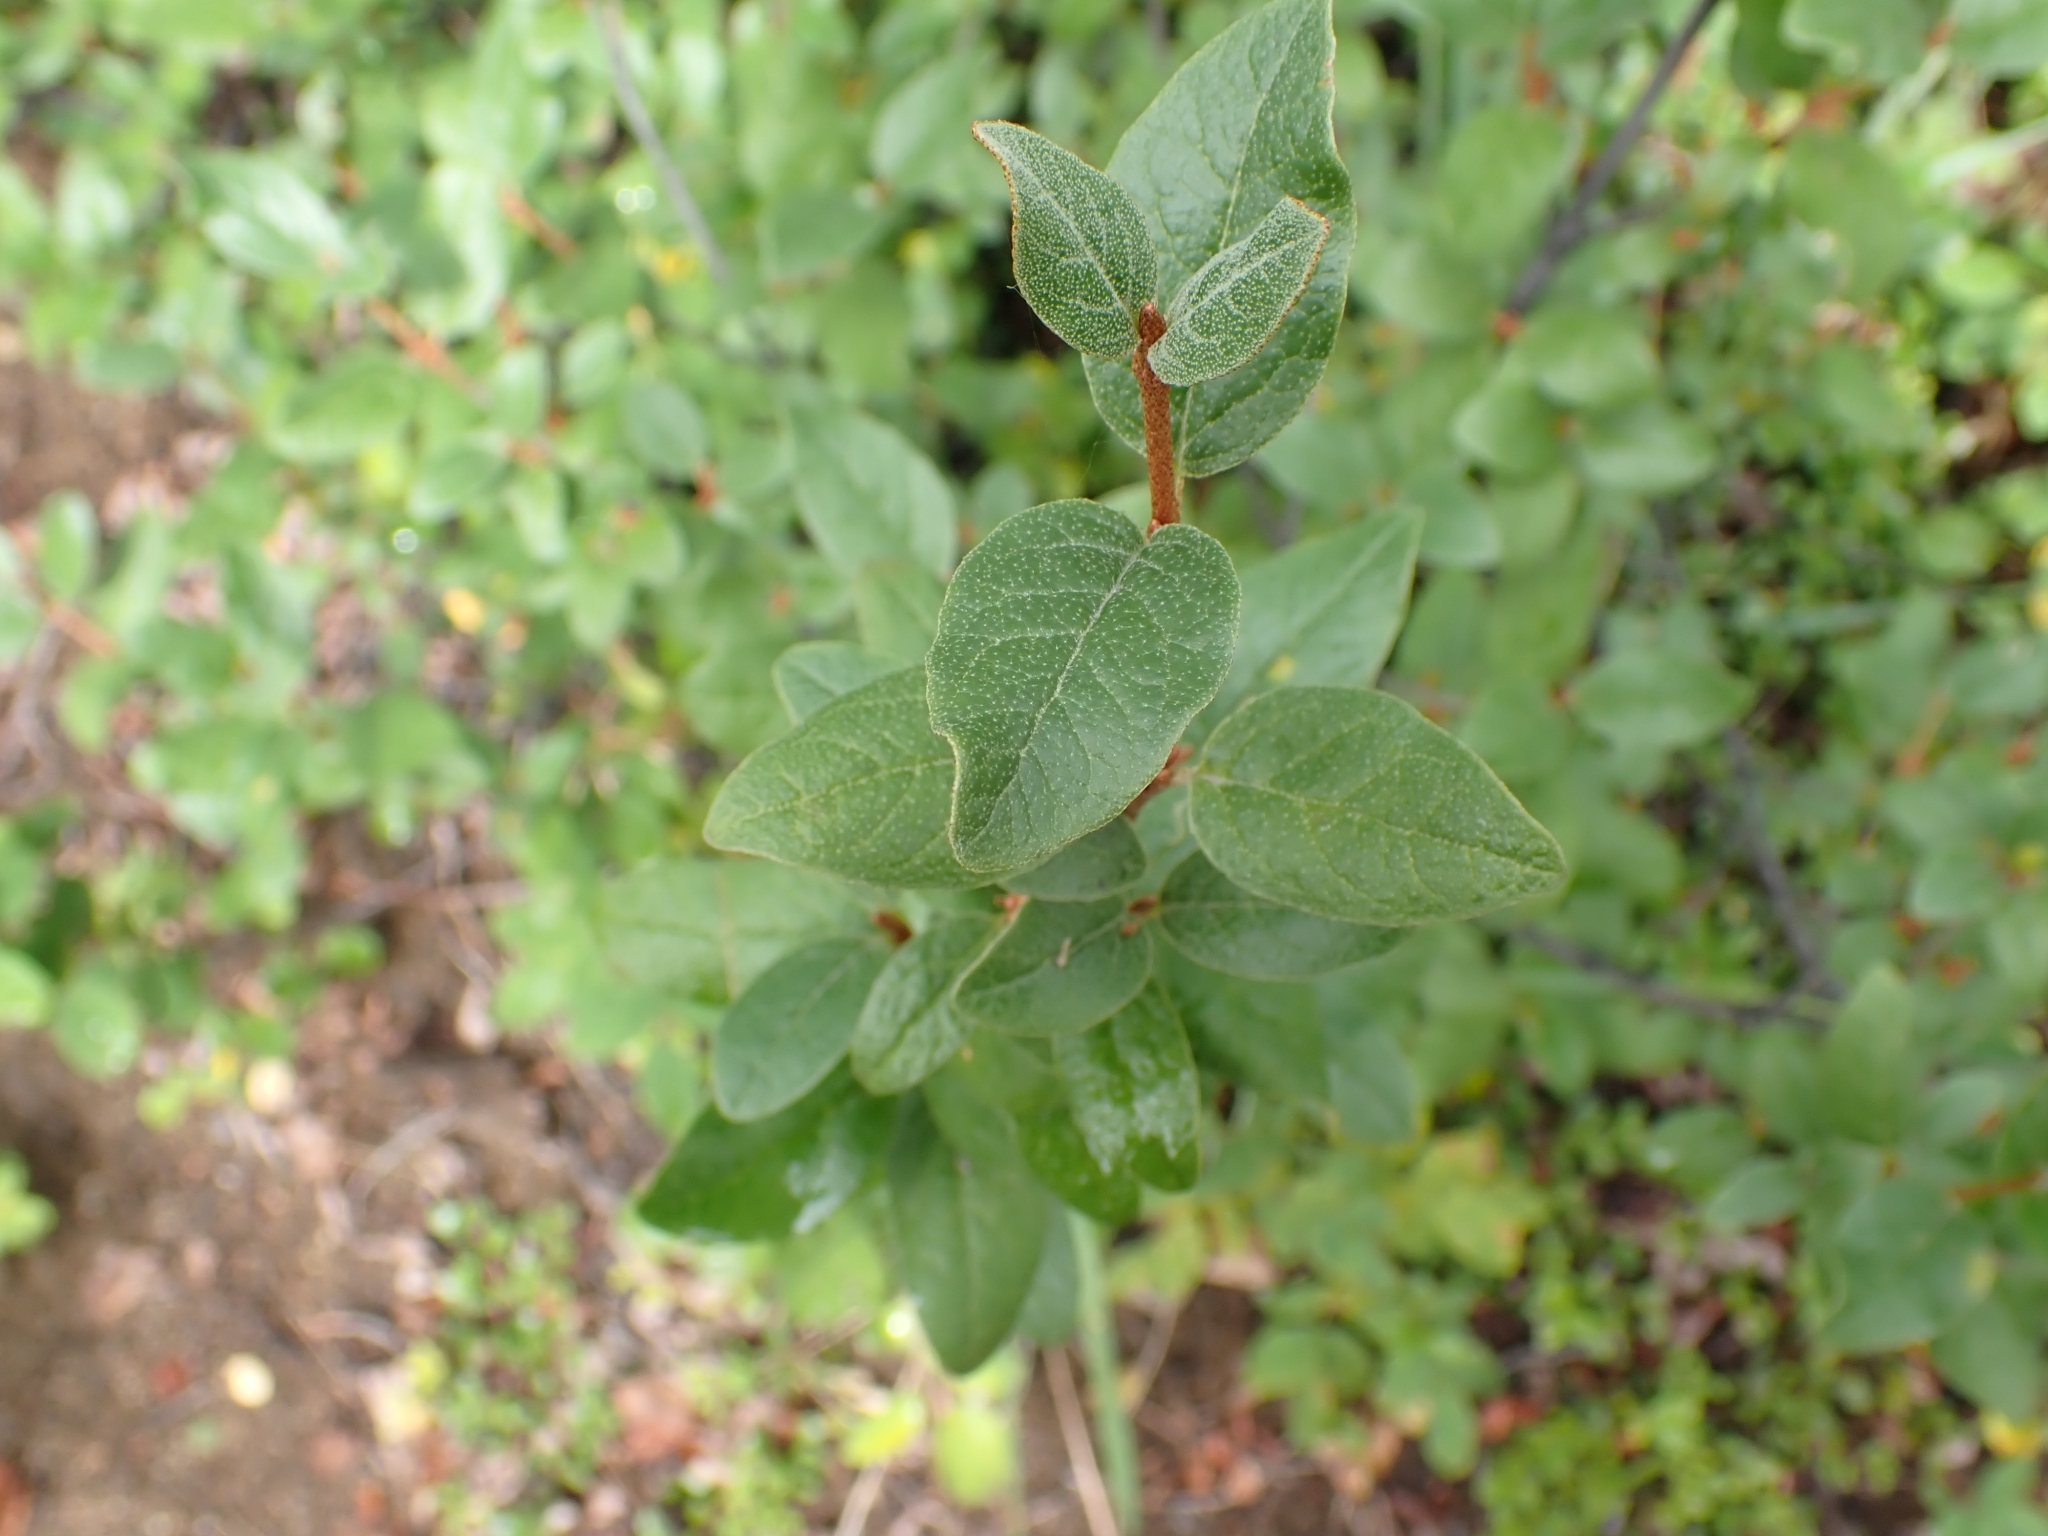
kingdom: Plantae
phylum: Tracheophyta
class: Magnoliopsida
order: Rosales
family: Elaeagnaceae
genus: Shepherdia
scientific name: Shepherdia canadensis
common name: Soapberry
